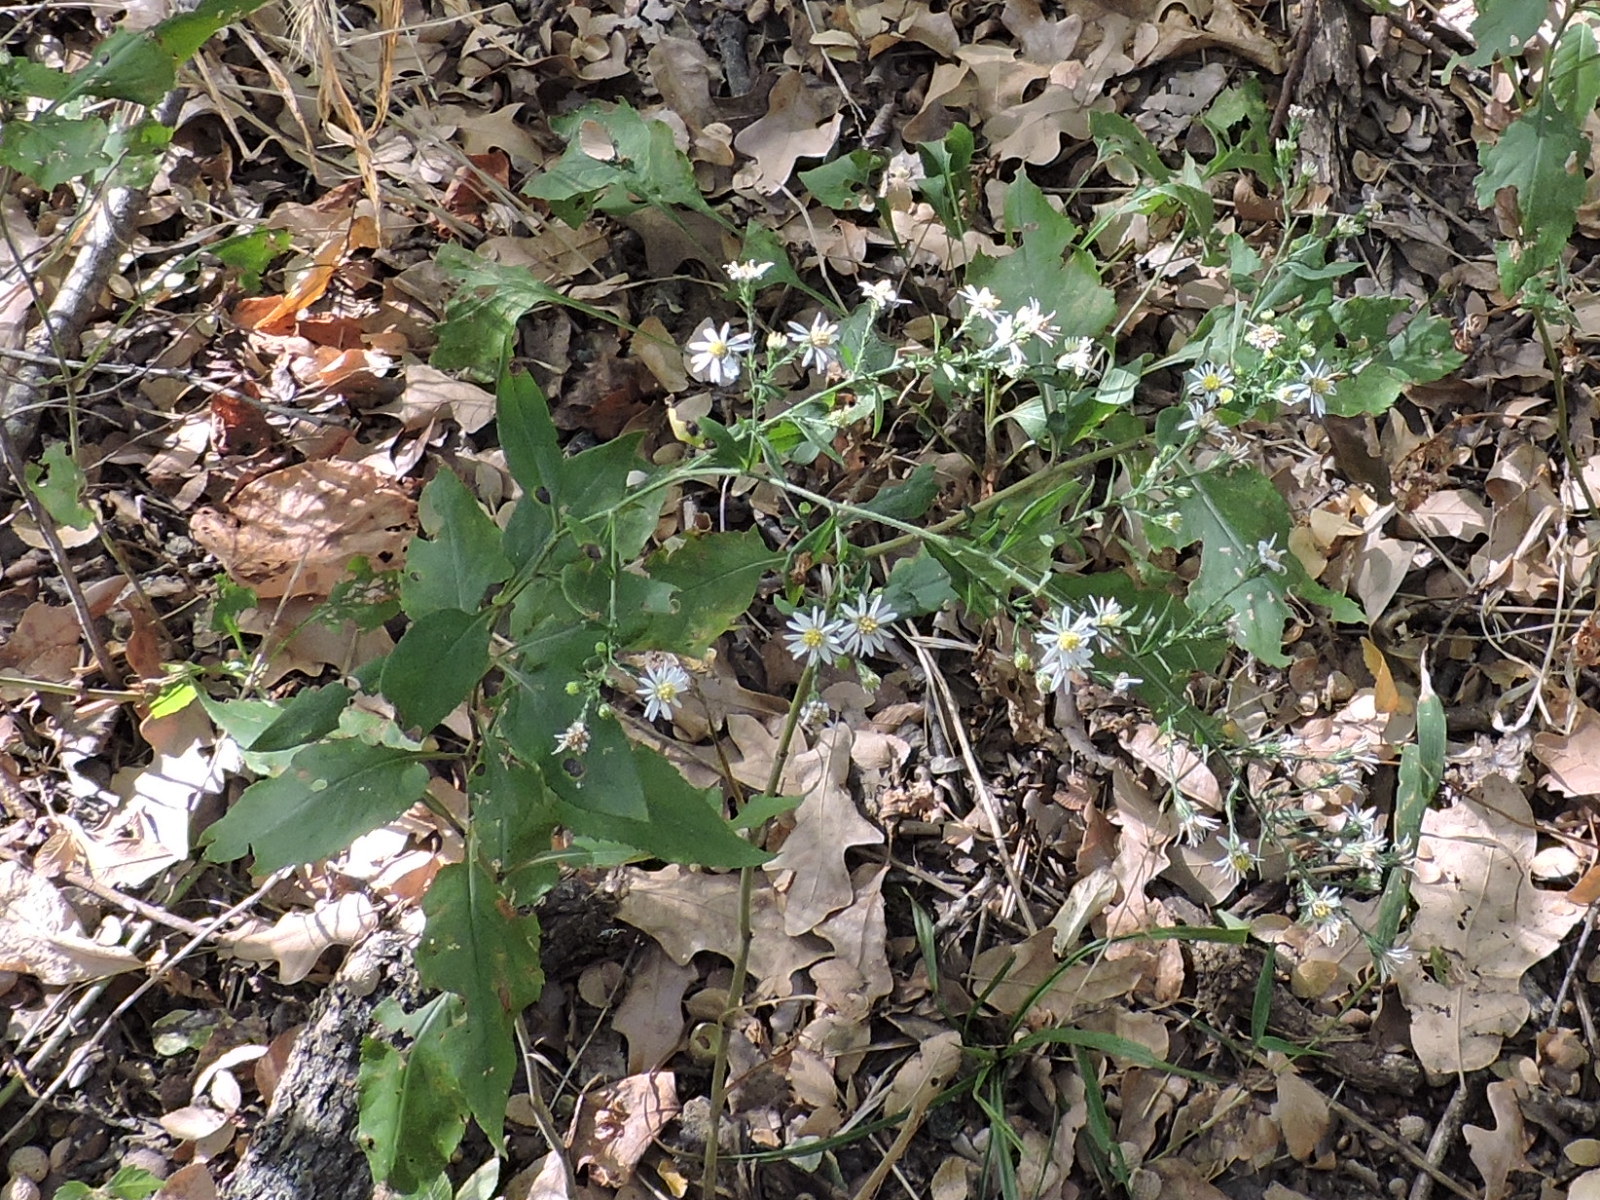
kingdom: Plantae
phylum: Tracheophyta
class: Magnoliopsida
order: Asterales
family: Asteraceae
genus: Symphyotrichum
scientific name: Symphyotrichum drummondii
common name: Drummond's aster
